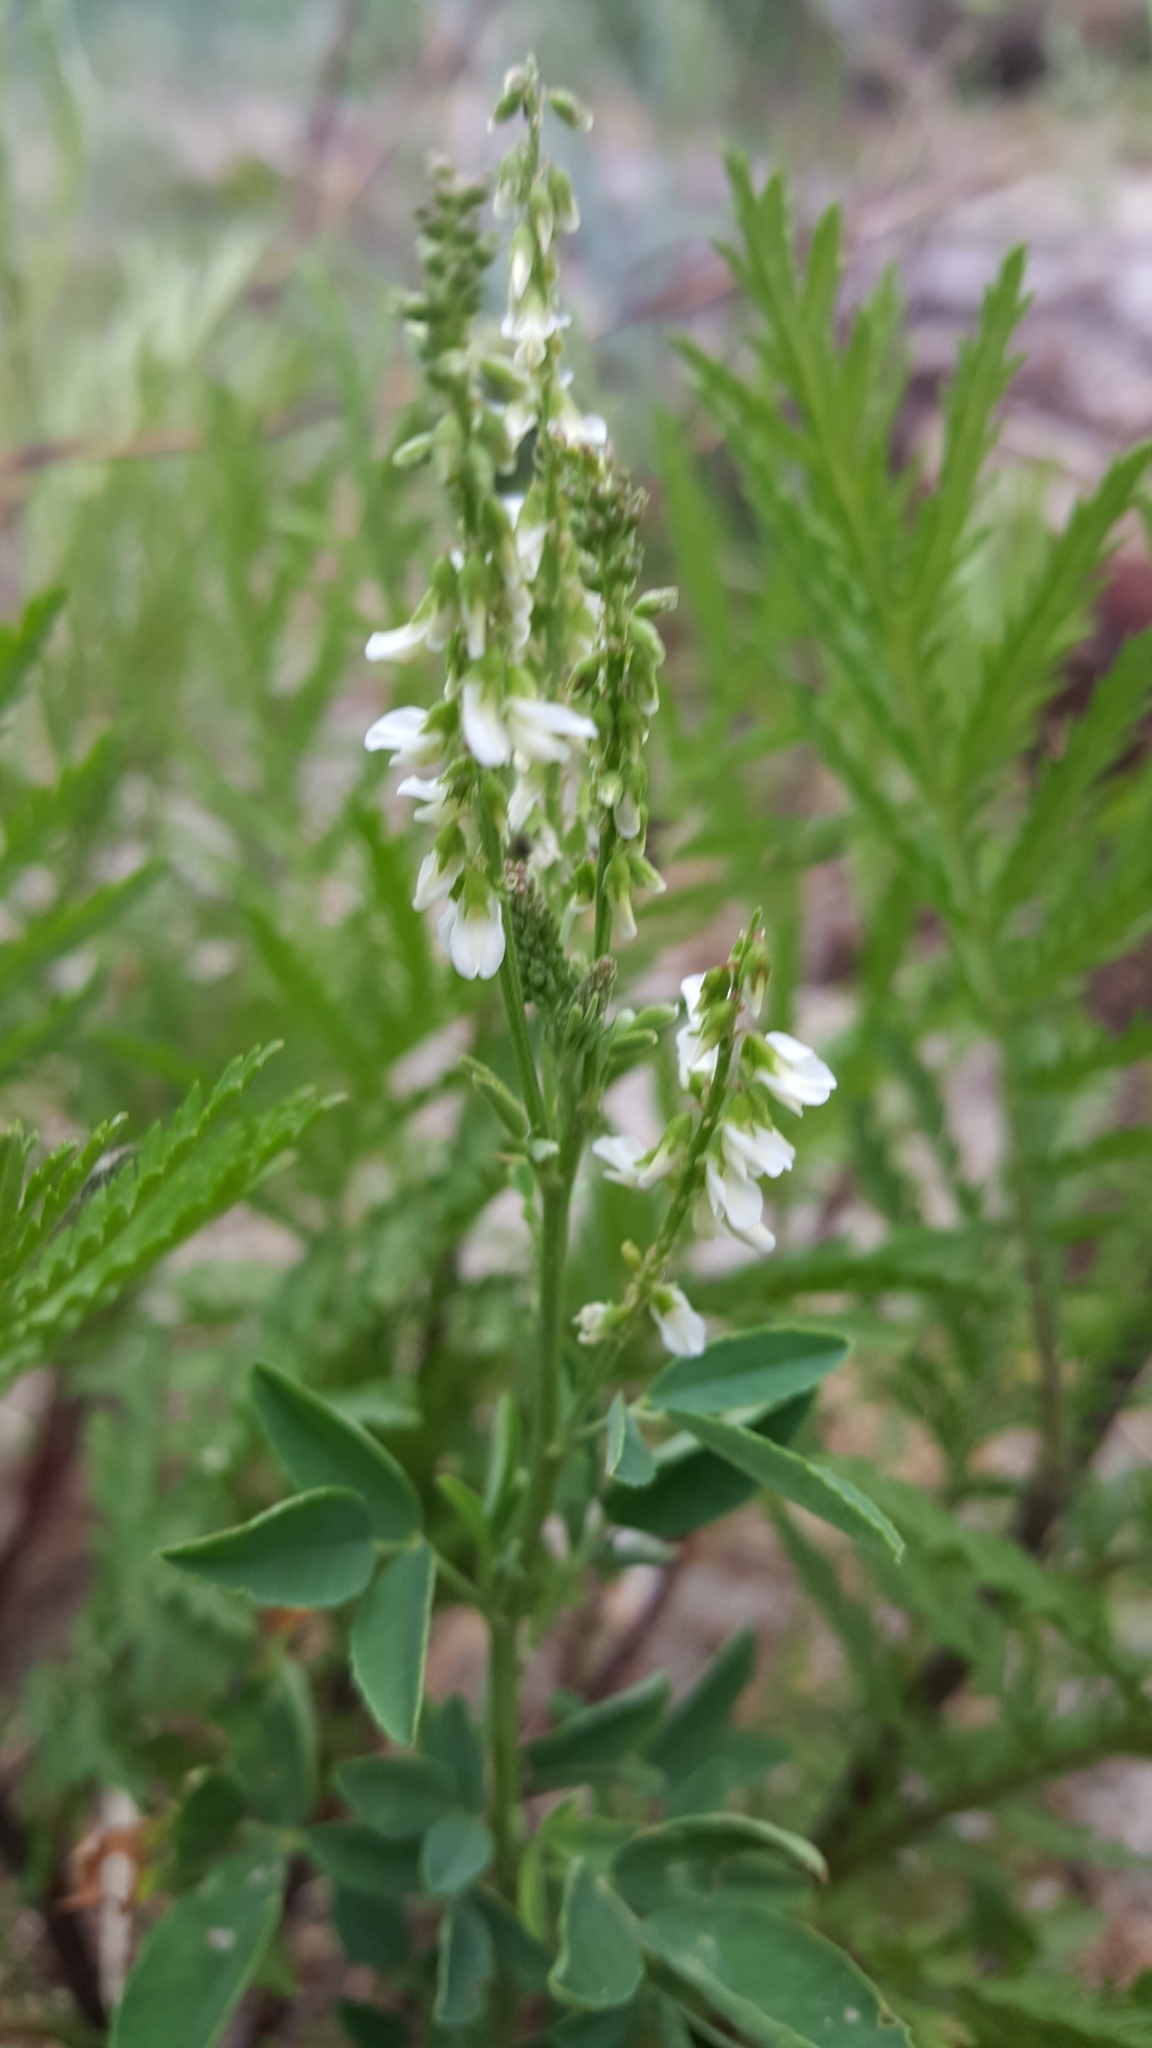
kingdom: Plantae
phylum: Tracheophyta
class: Magnoliopsida
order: Fabales
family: Fabaceae
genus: Melilotus
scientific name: Melilotus albus
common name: White melilot
